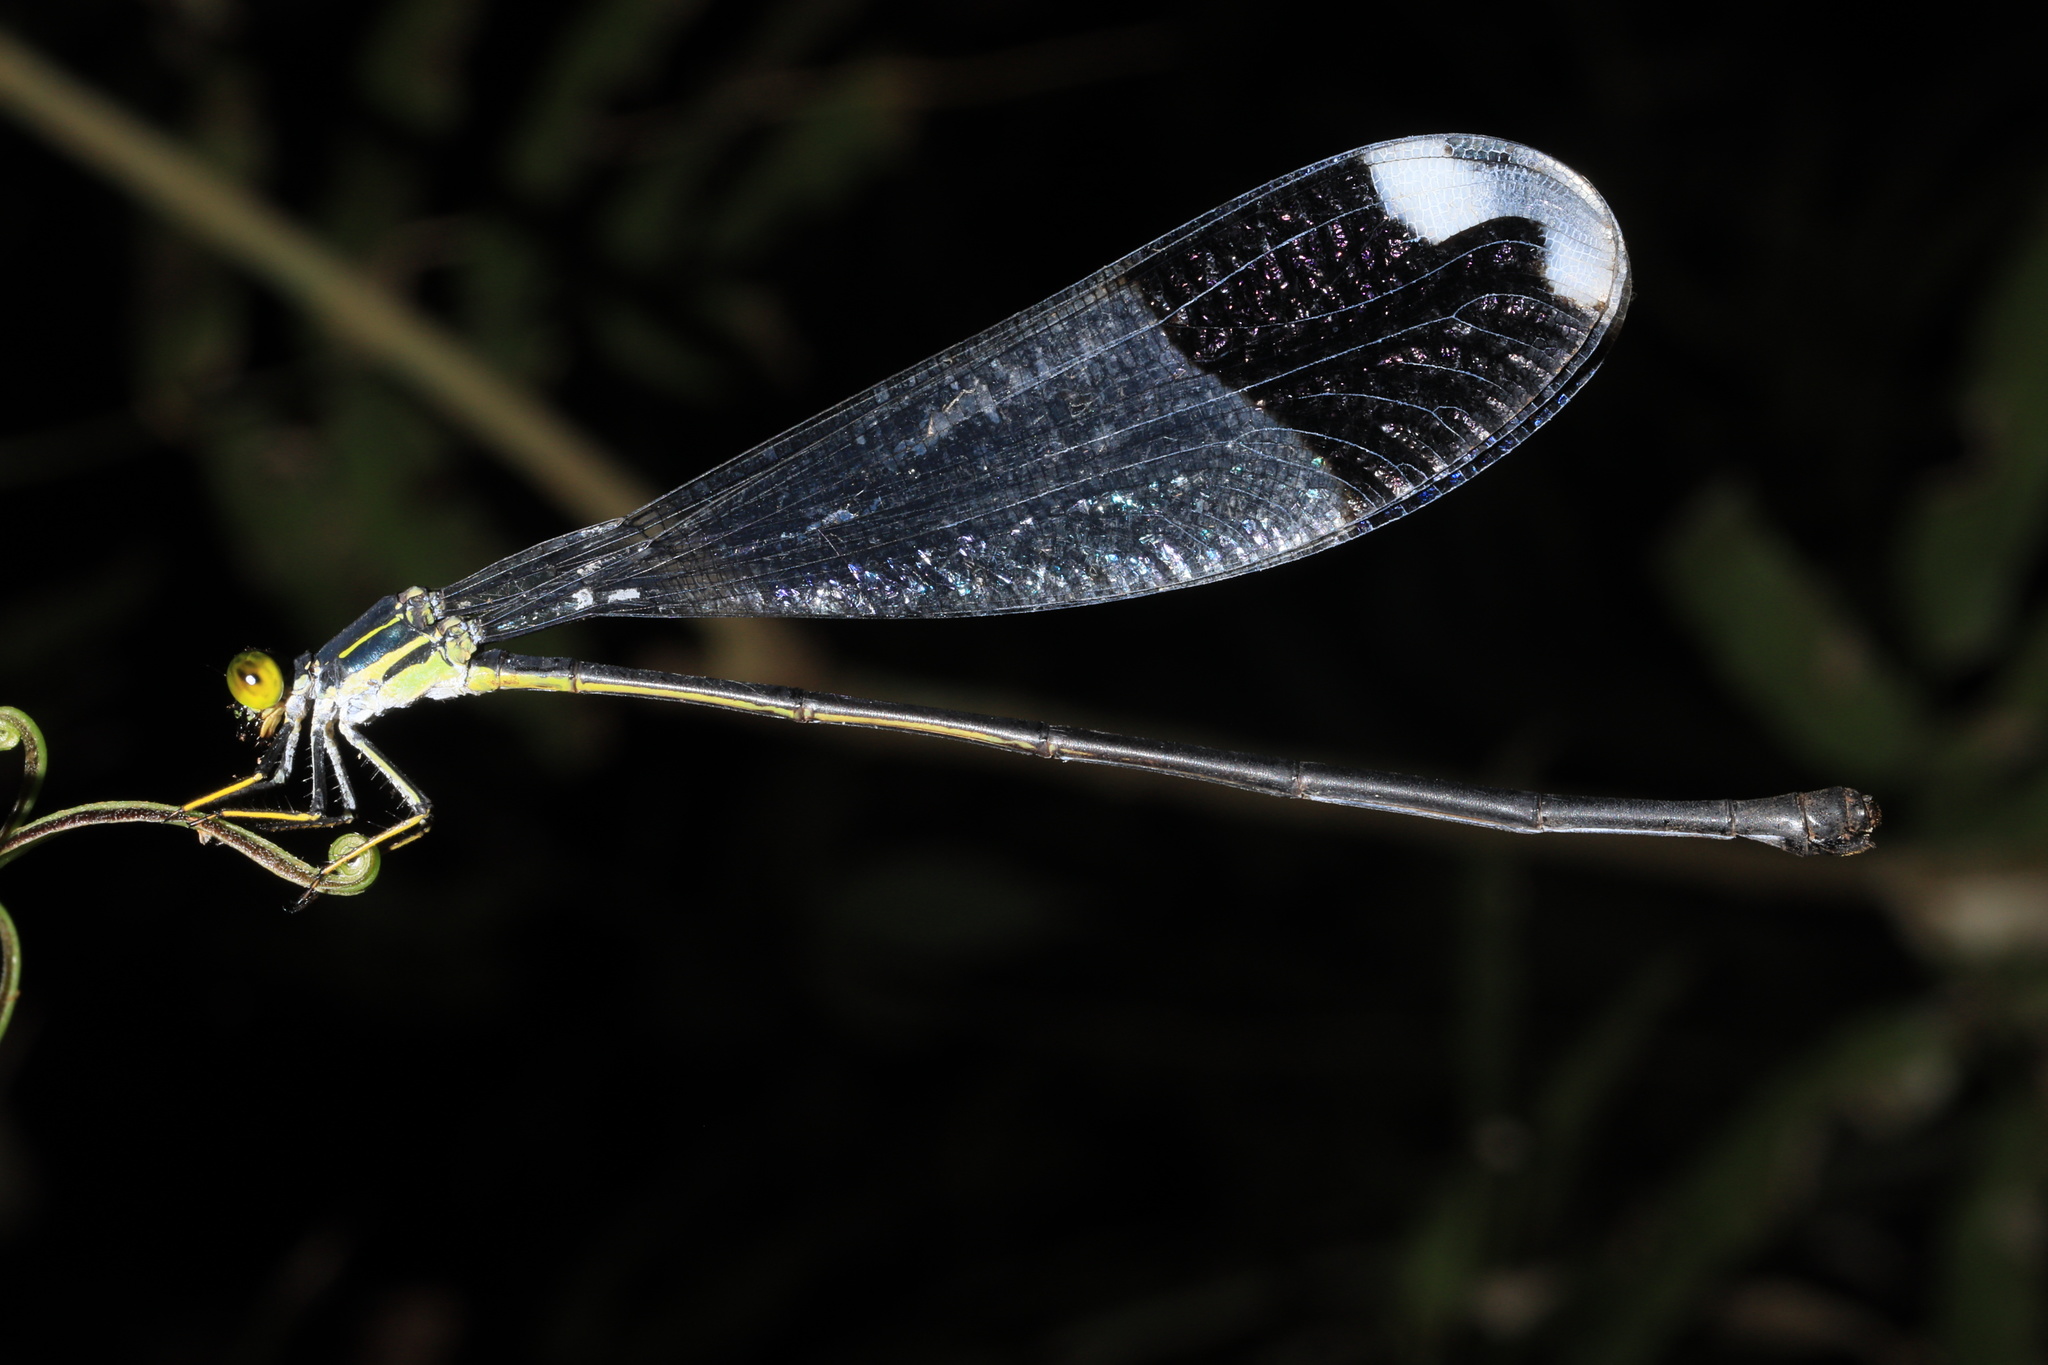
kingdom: Animalia
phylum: Arthropoda
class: Insecta
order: Odonata
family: Coenagrionidae
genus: Megaloprepus
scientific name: Megaloprepus caerulatus
